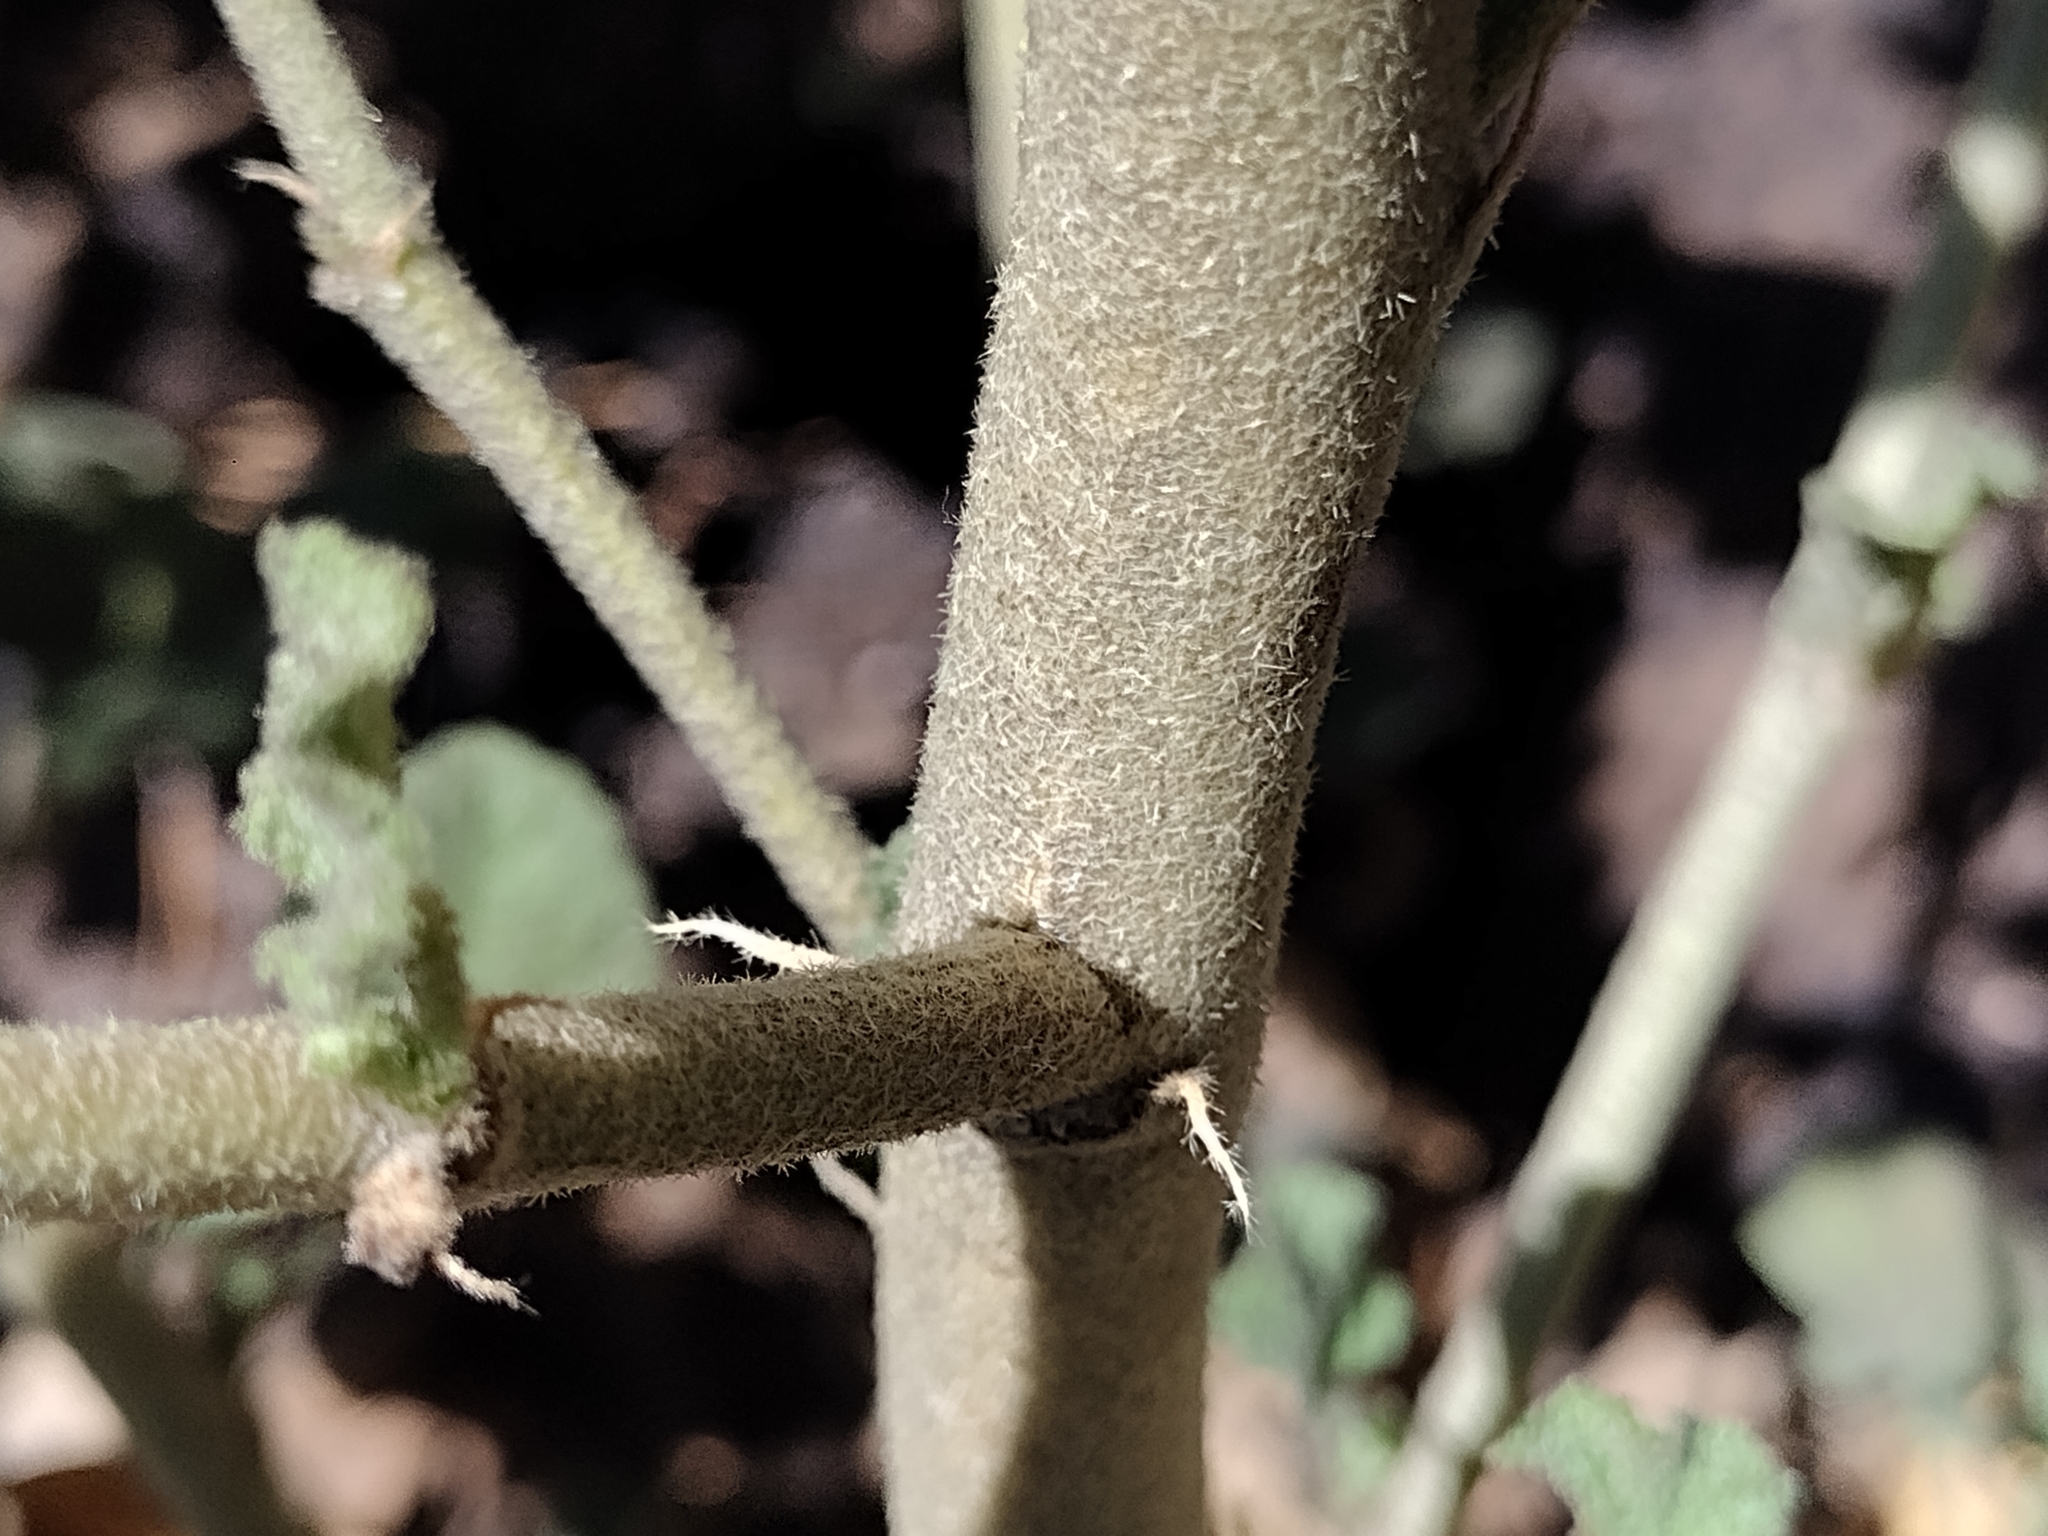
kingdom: Plantae
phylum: Tracheophyta
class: Magnoliopsida
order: Malvales
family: Malvaceae
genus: Malacothamnus
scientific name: Malacothamnus fremontii
